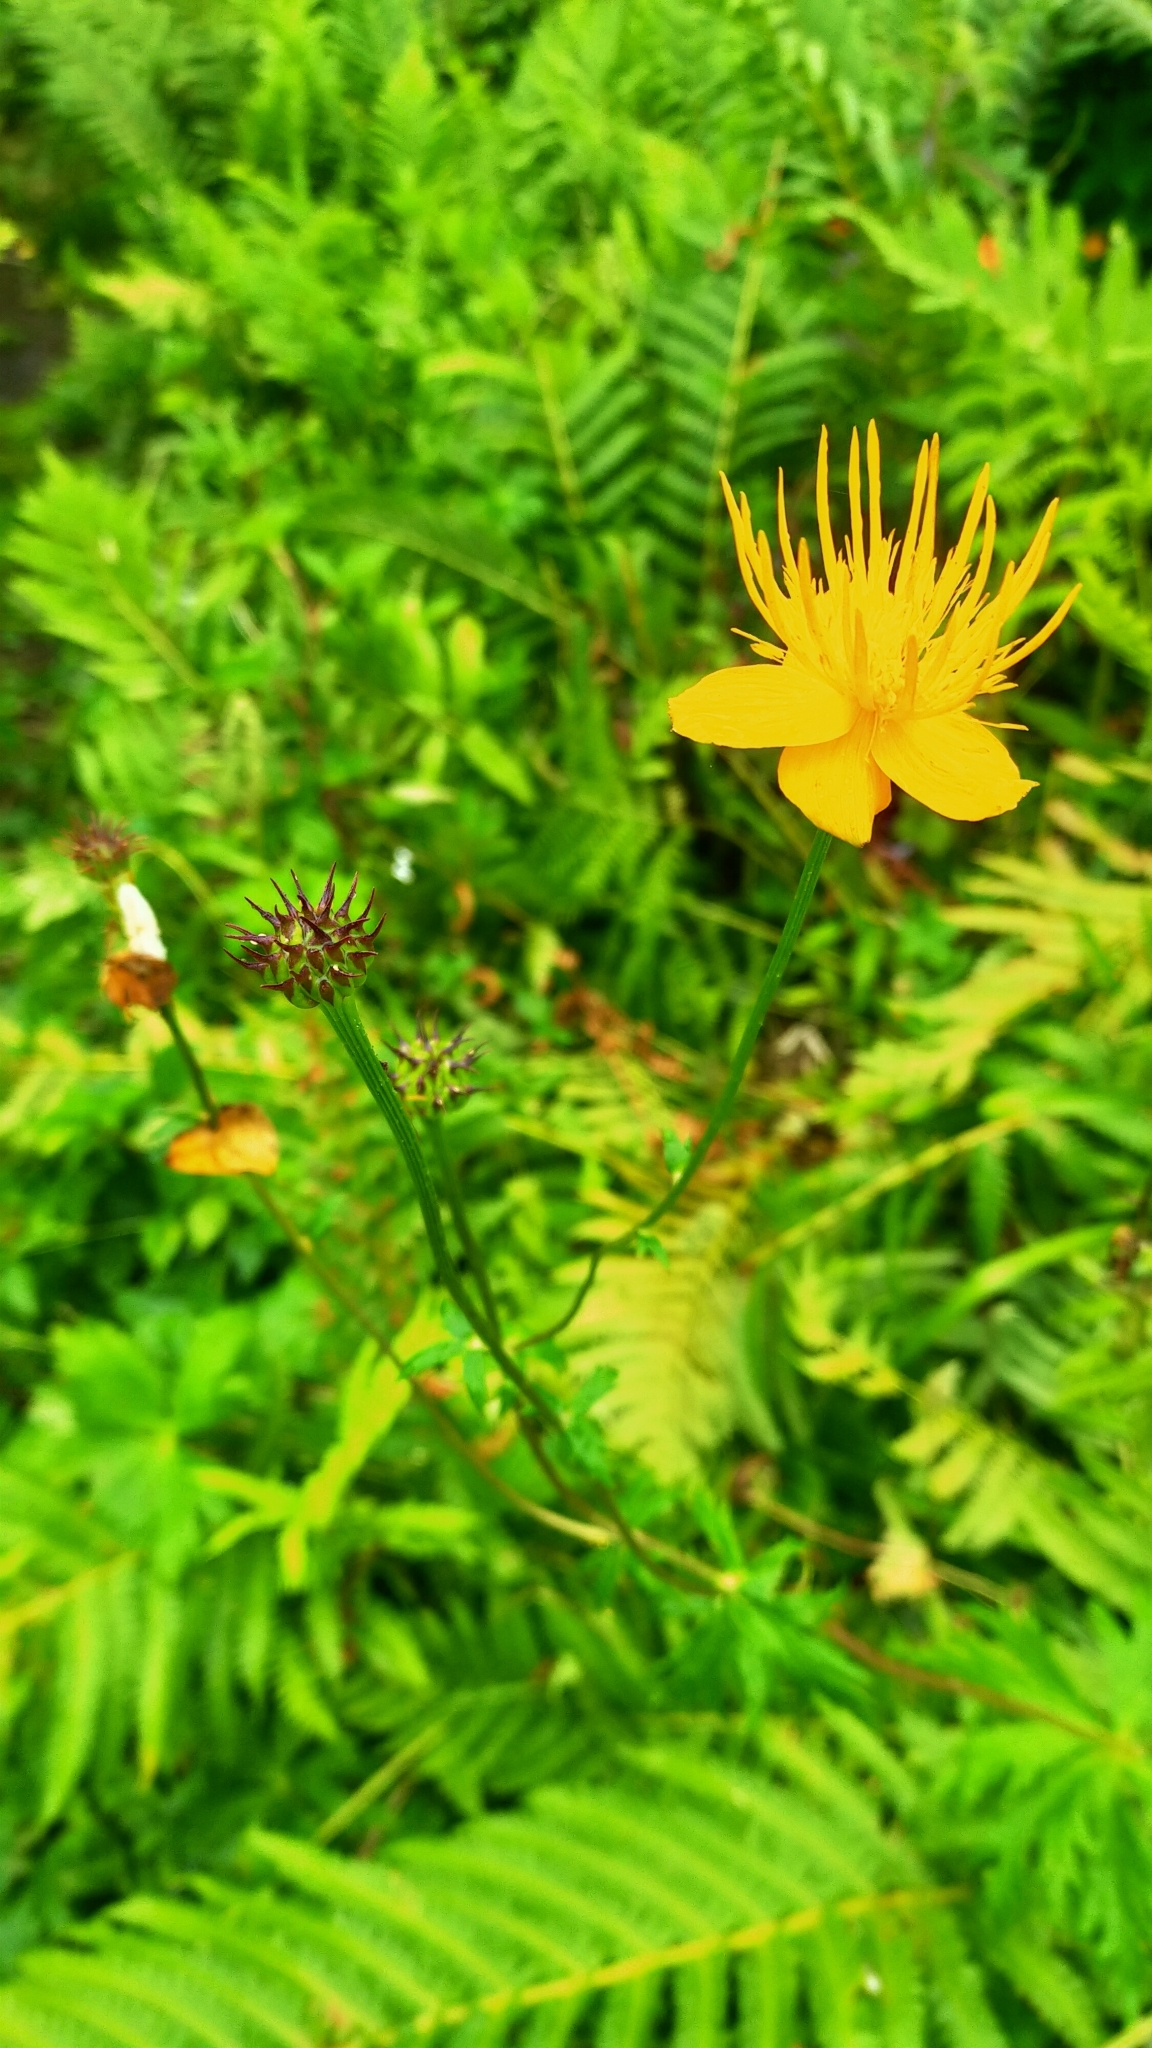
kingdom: Plantae
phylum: Tracheophyta
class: Magnoliopsida
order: Ranunculales
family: Ranunculaceae
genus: Trollius
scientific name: Trollius chinensis
